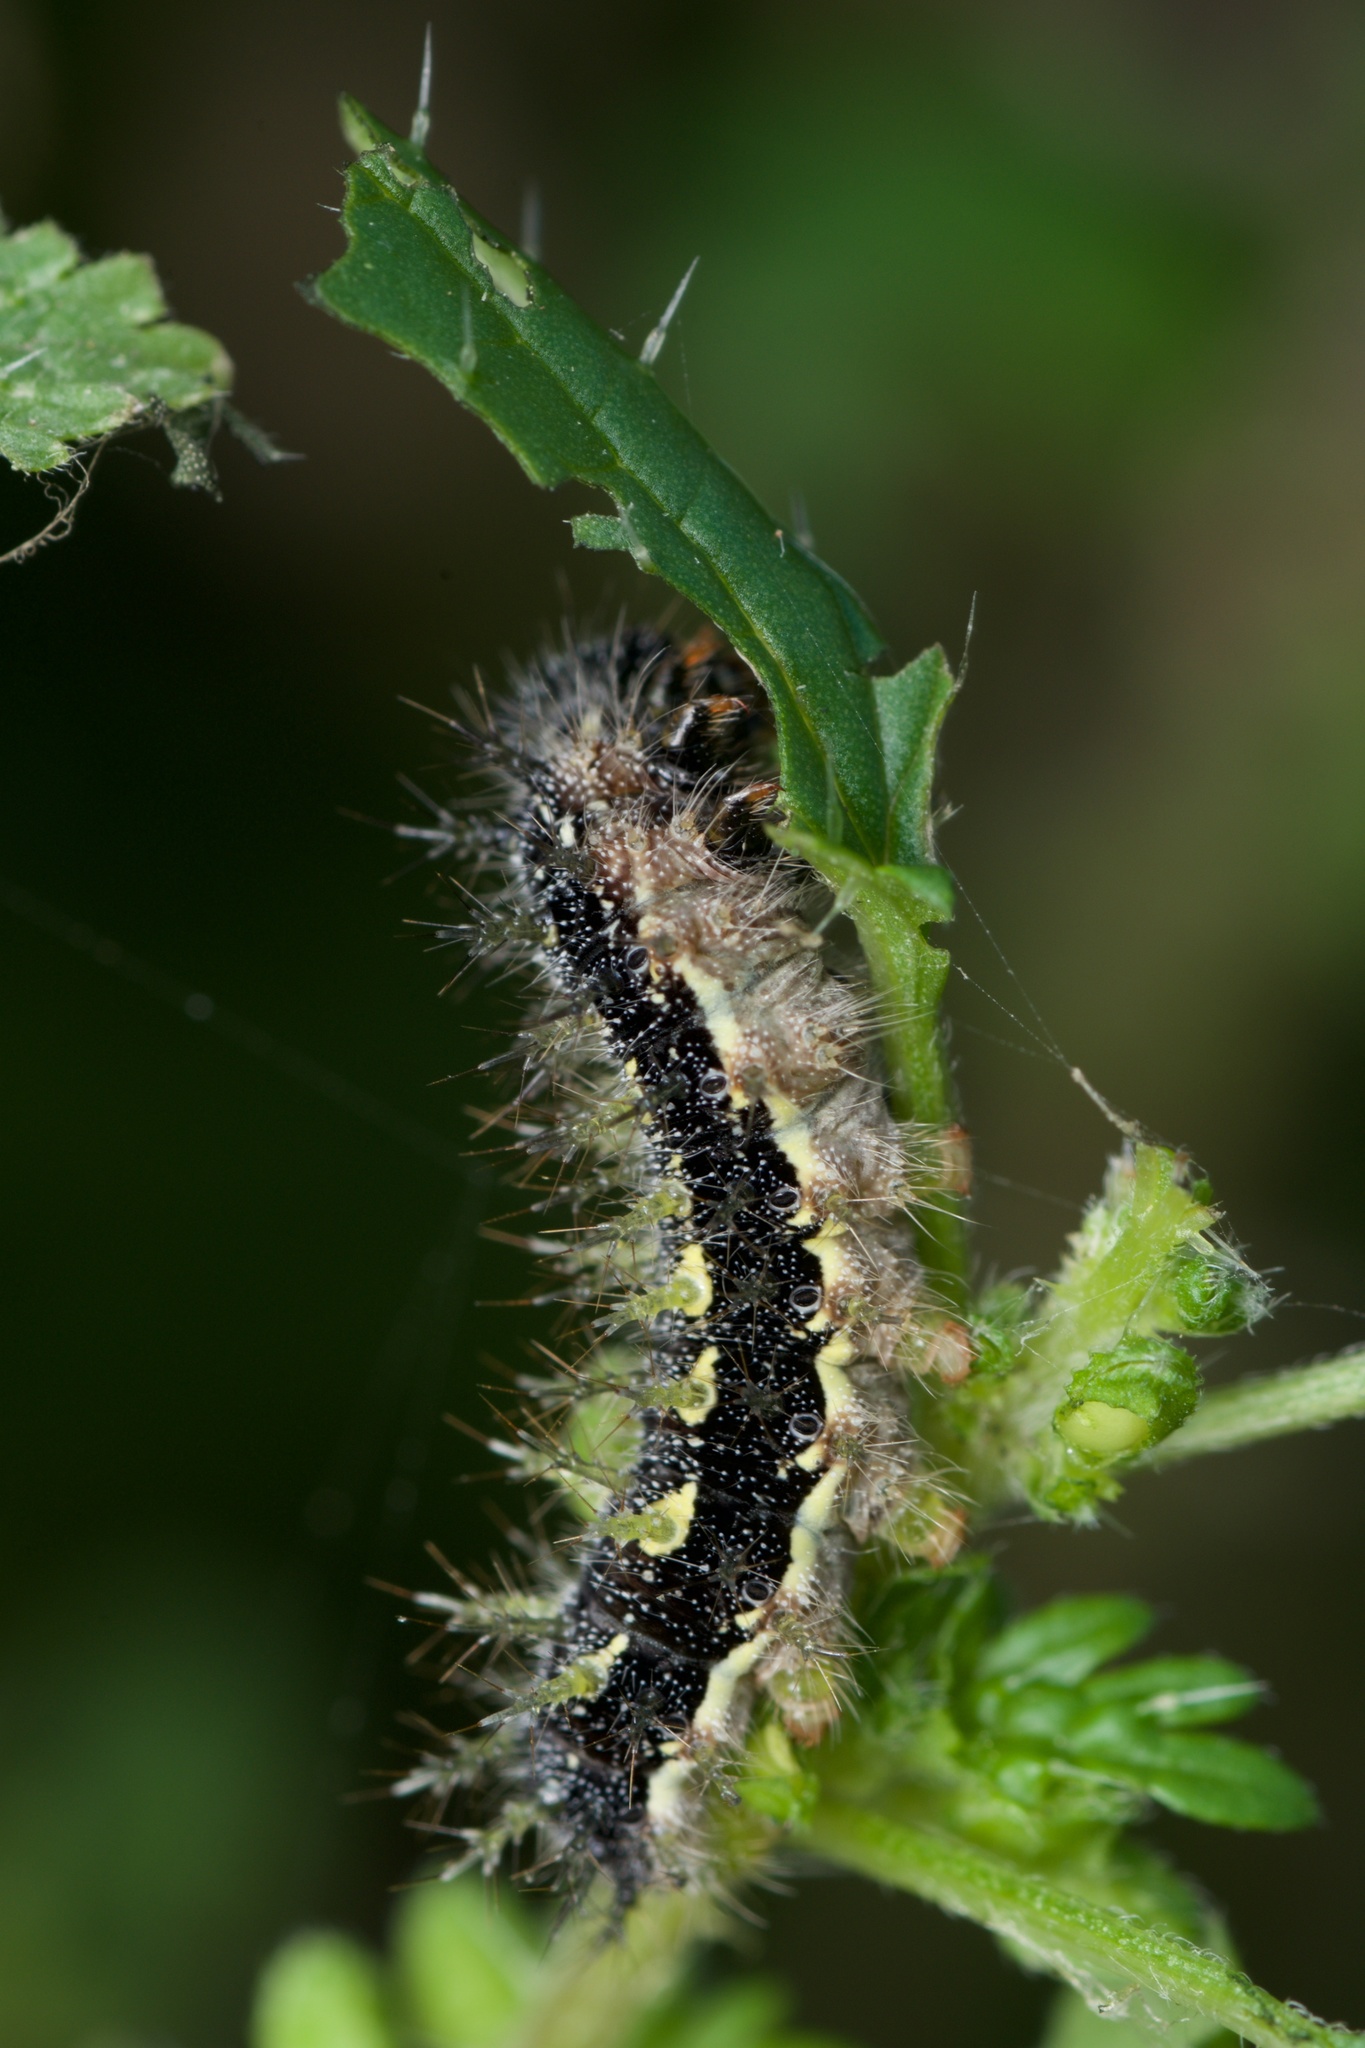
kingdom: Animalia
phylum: Arthropoda
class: Insecta
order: Lepidoptera
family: Nymphalidae
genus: Vanessa
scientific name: Vanessa itea
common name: Yellow admiral
